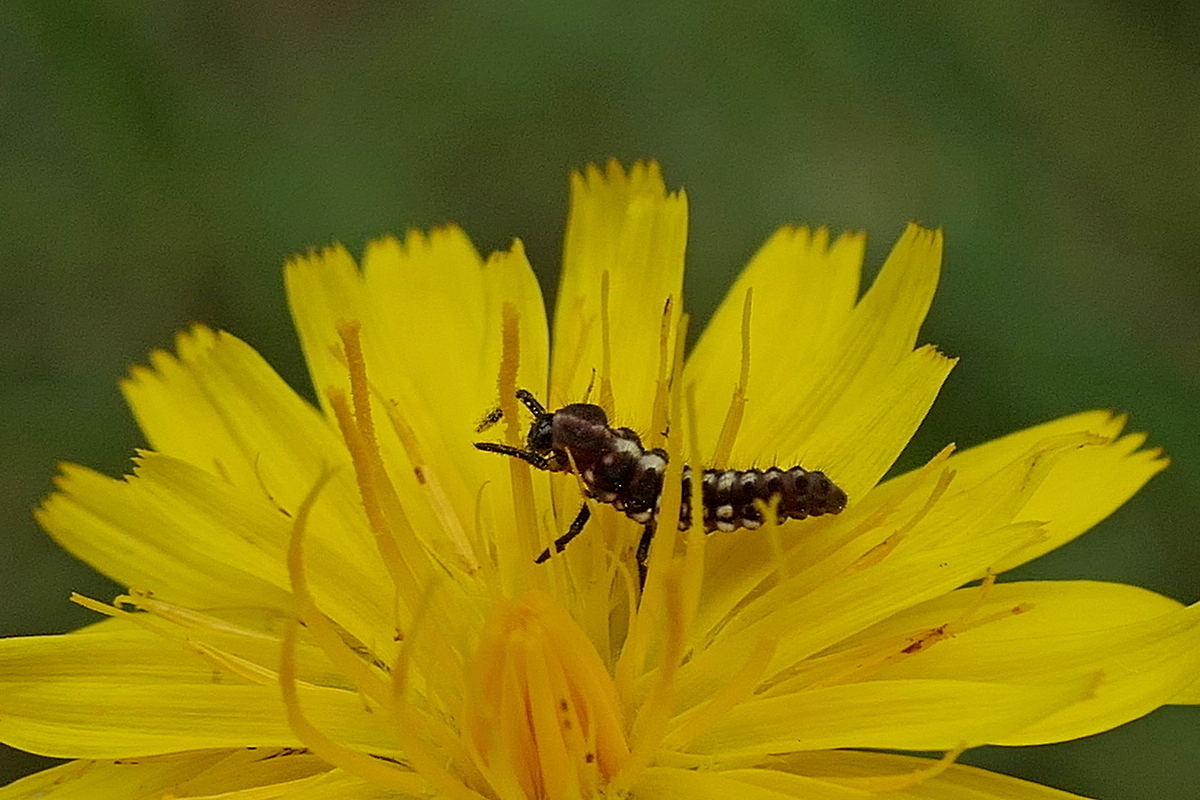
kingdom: Animalia
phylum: Arthropoda
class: Insecta
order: Coleoptera
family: Coccinellidae
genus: Micraspis
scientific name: Micraspis frenata
